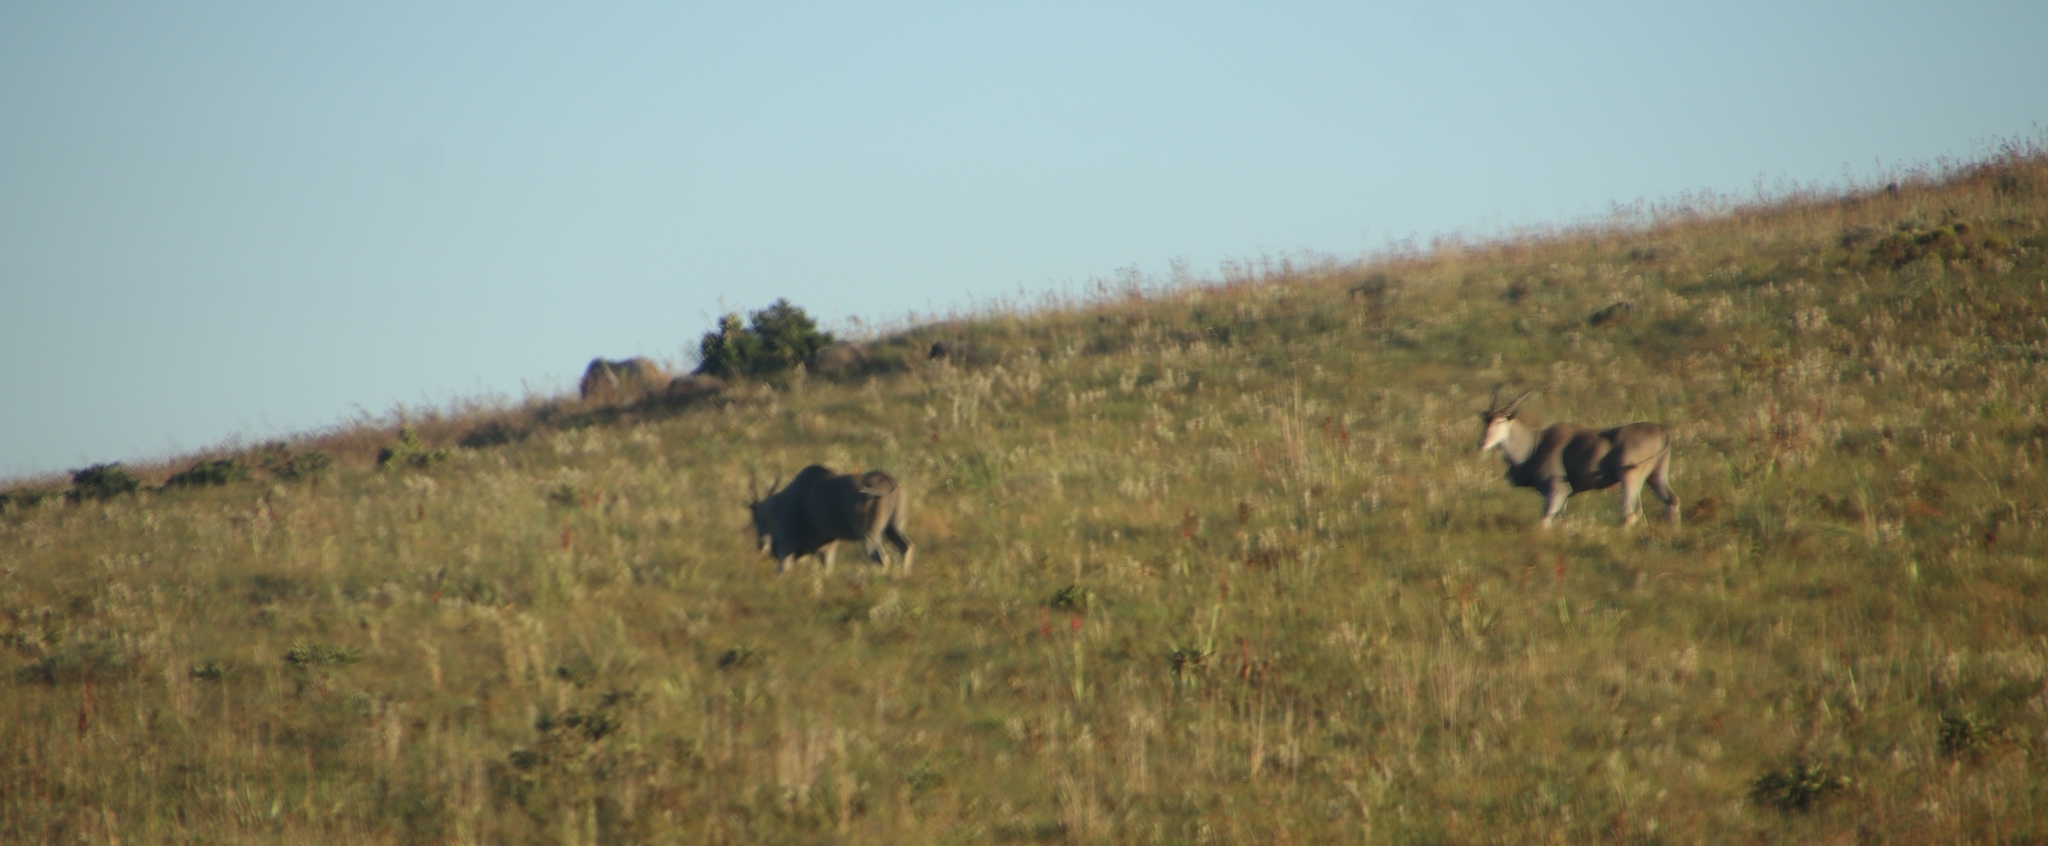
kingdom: Animalia
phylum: Chordata
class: Mammalia
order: Artiodactyla
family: Bovidae
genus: Taurotragus
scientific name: Taurotragus oryx
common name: Common eland
